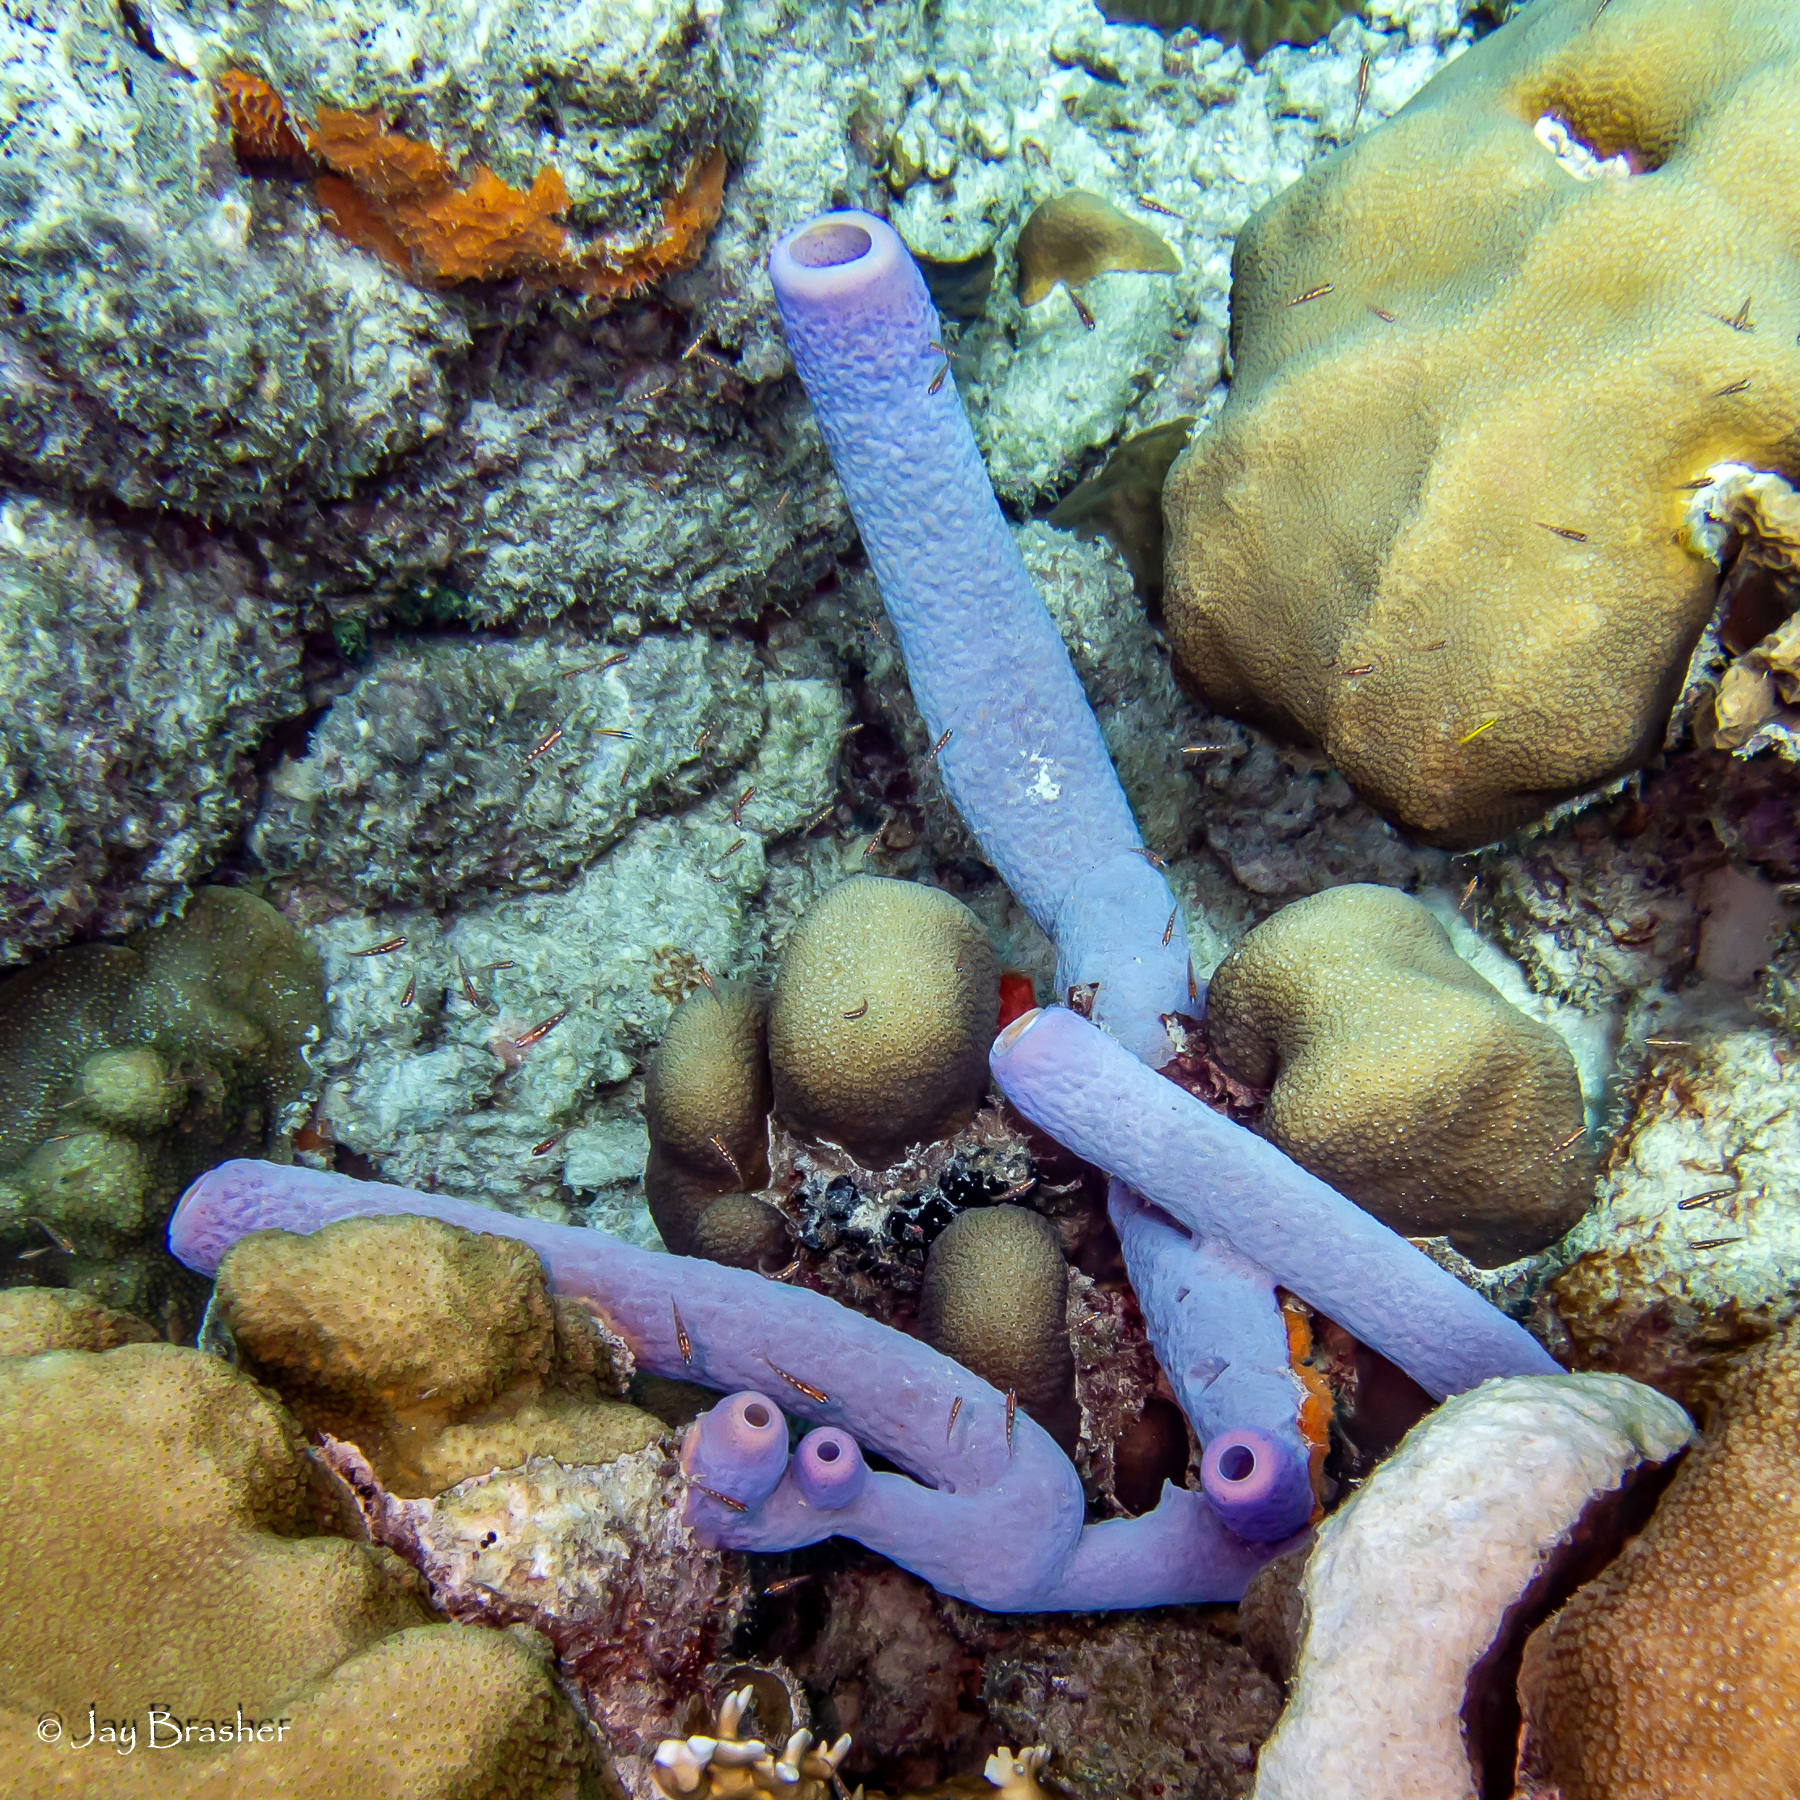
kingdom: Animalia
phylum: Porifera
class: Demospongiae
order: Scopalinida
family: Scopalinidae
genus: Scopalina
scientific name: Scopalina ruetzleri
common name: Orange lumpy encrusting sponge
